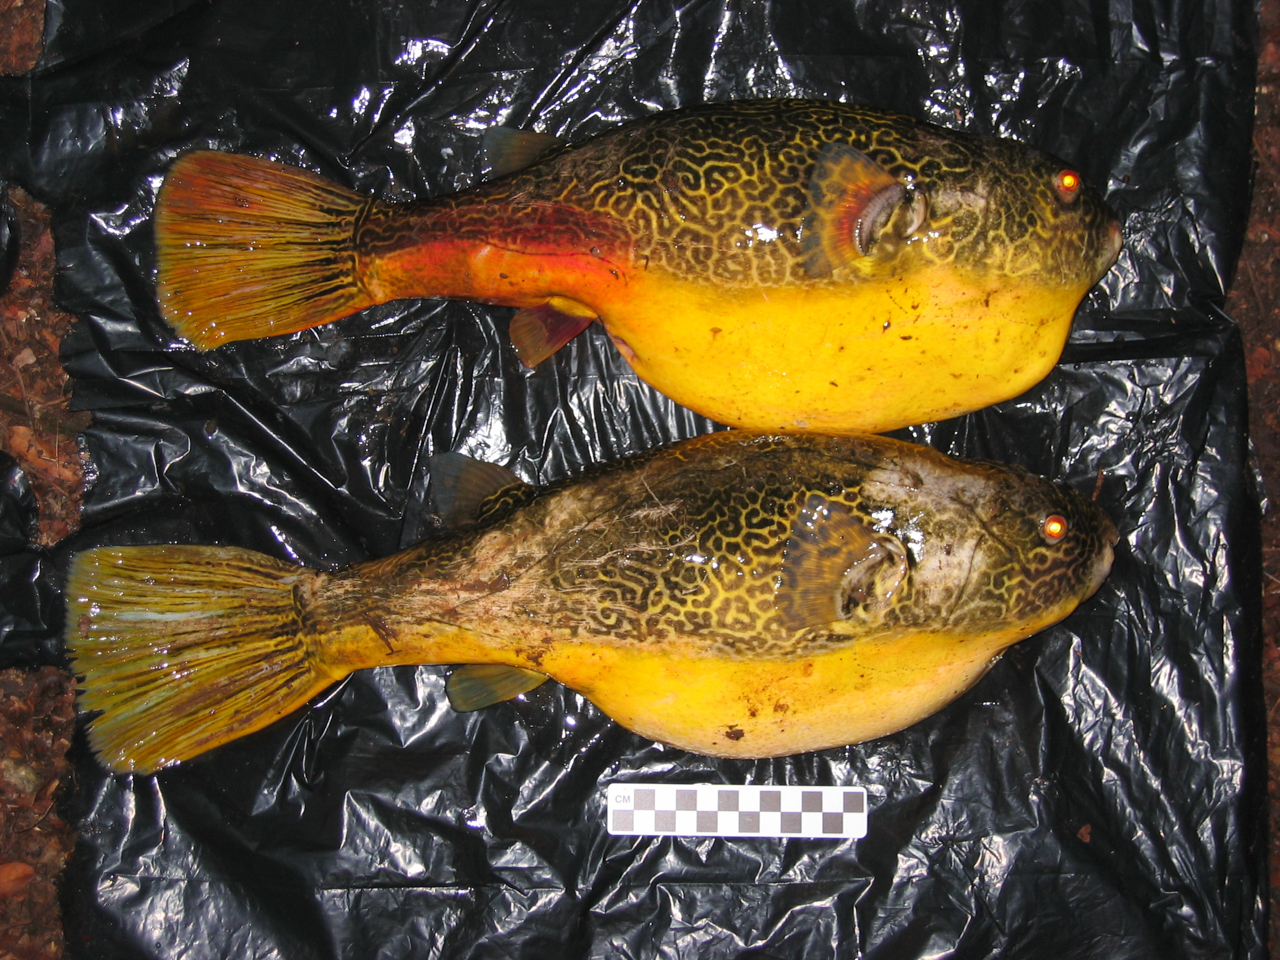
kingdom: Animalia
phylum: Chordata
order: Tetraodontiformes
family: Tetraodontidae
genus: Tetraodon
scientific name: Tetraodon mbu
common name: Fresh water puffer fish
